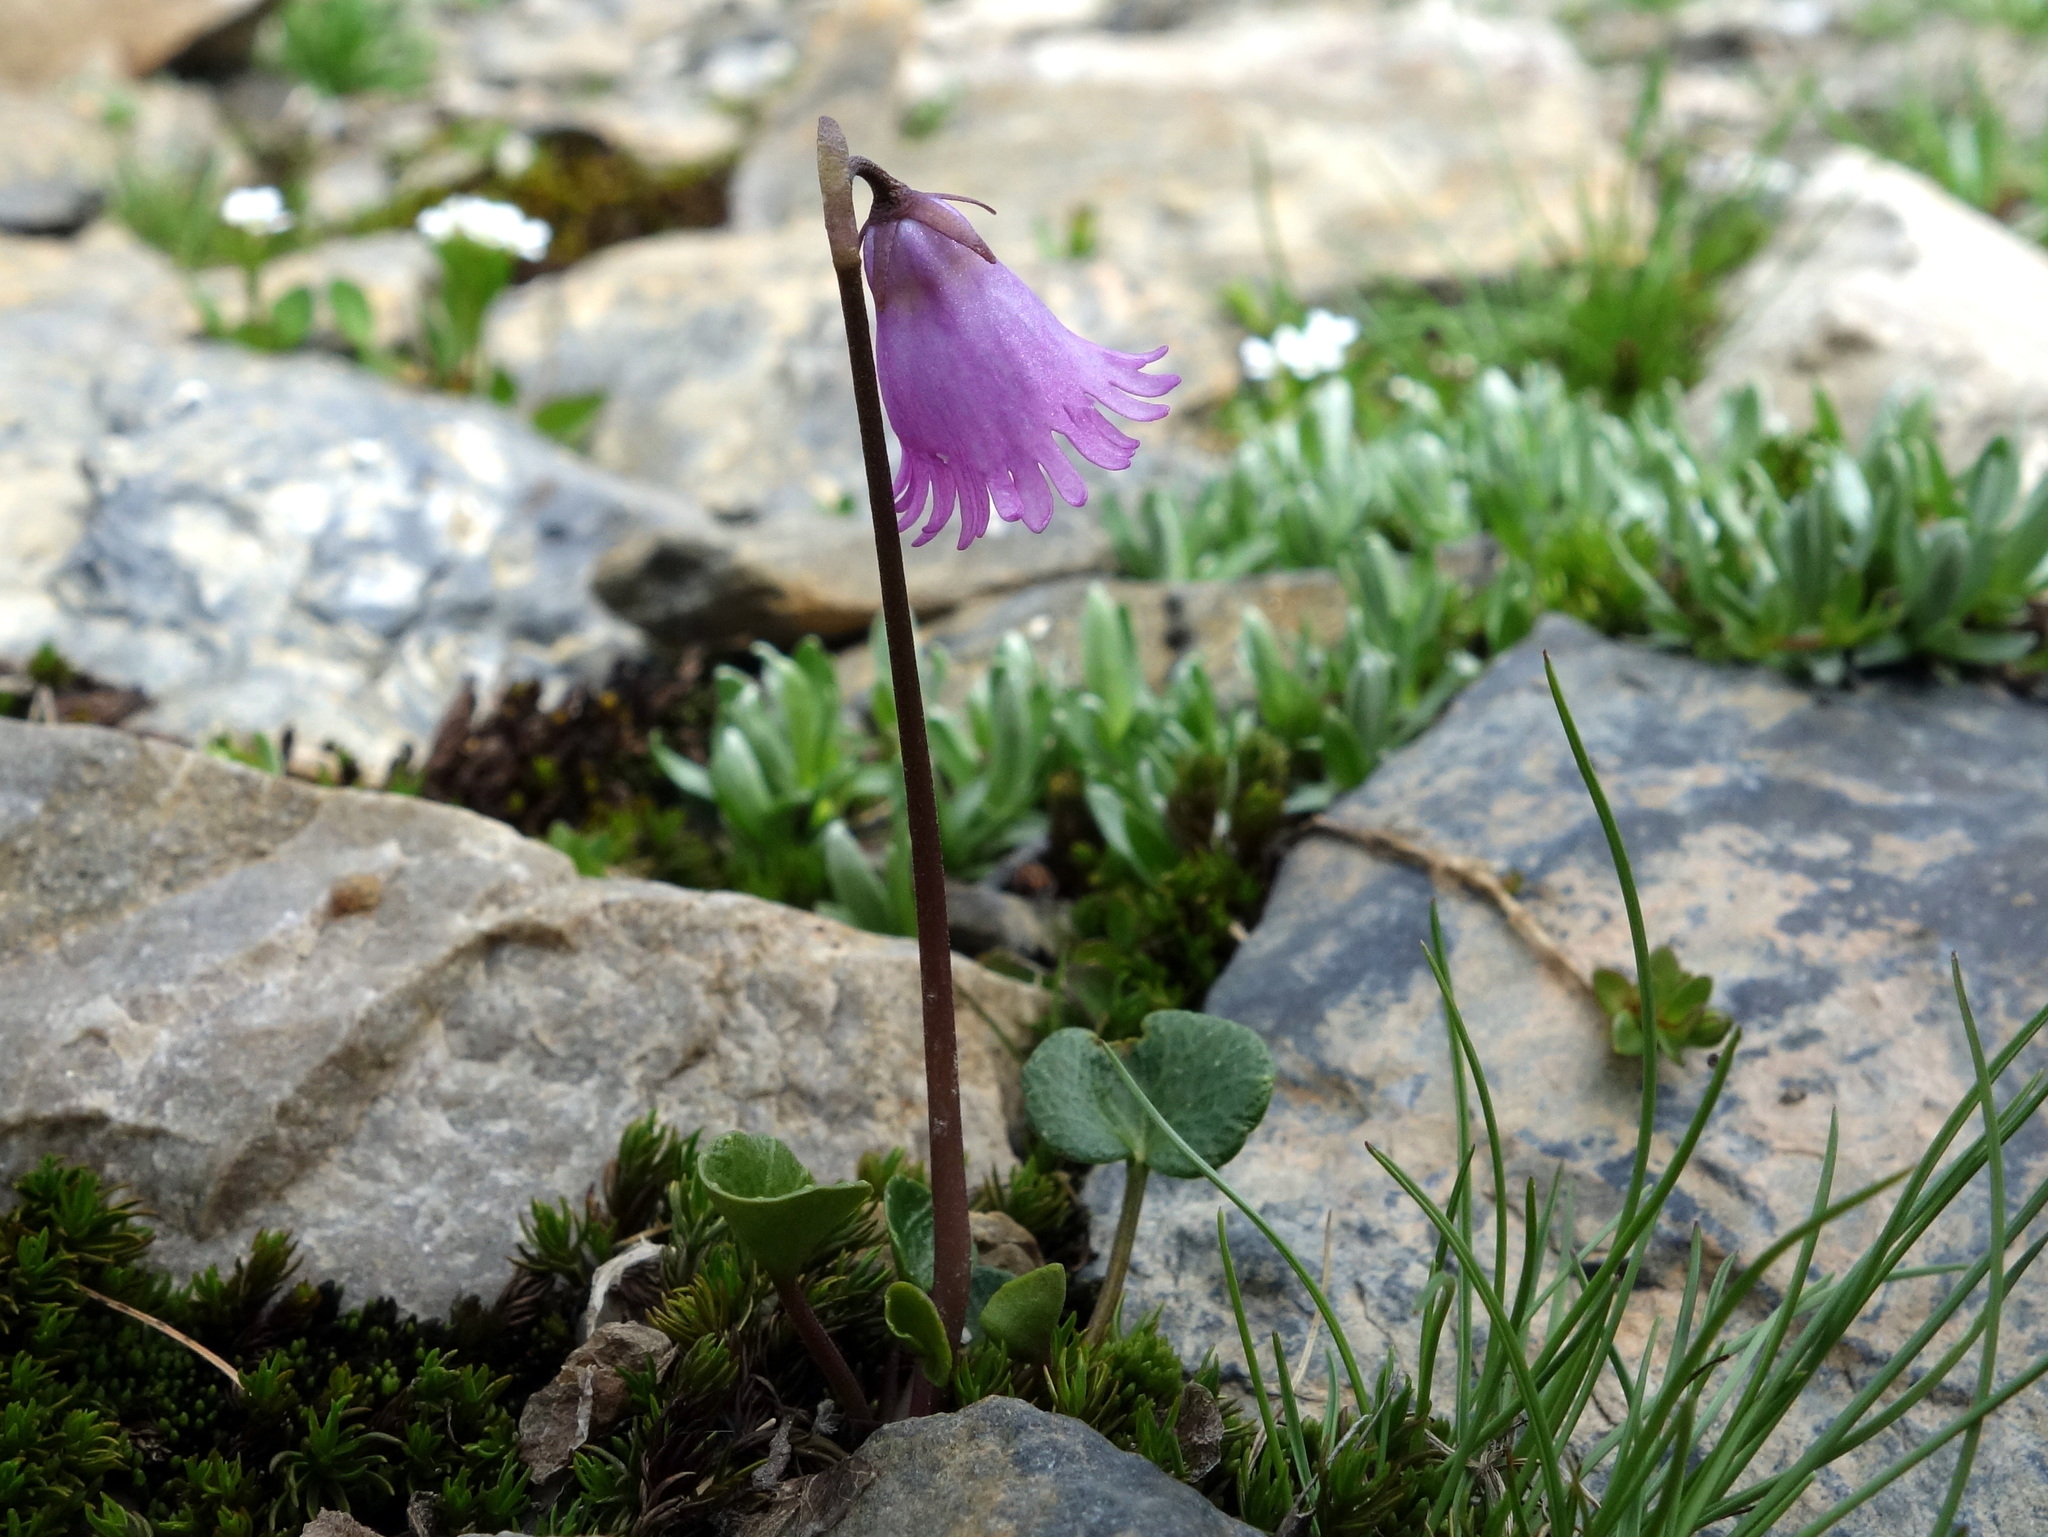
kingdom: Plantae
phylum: Tracheophyta
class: Magnoliopsida
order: Ericales
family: Primulaceae
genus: Soldanella
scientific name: Soldanella alpicola
